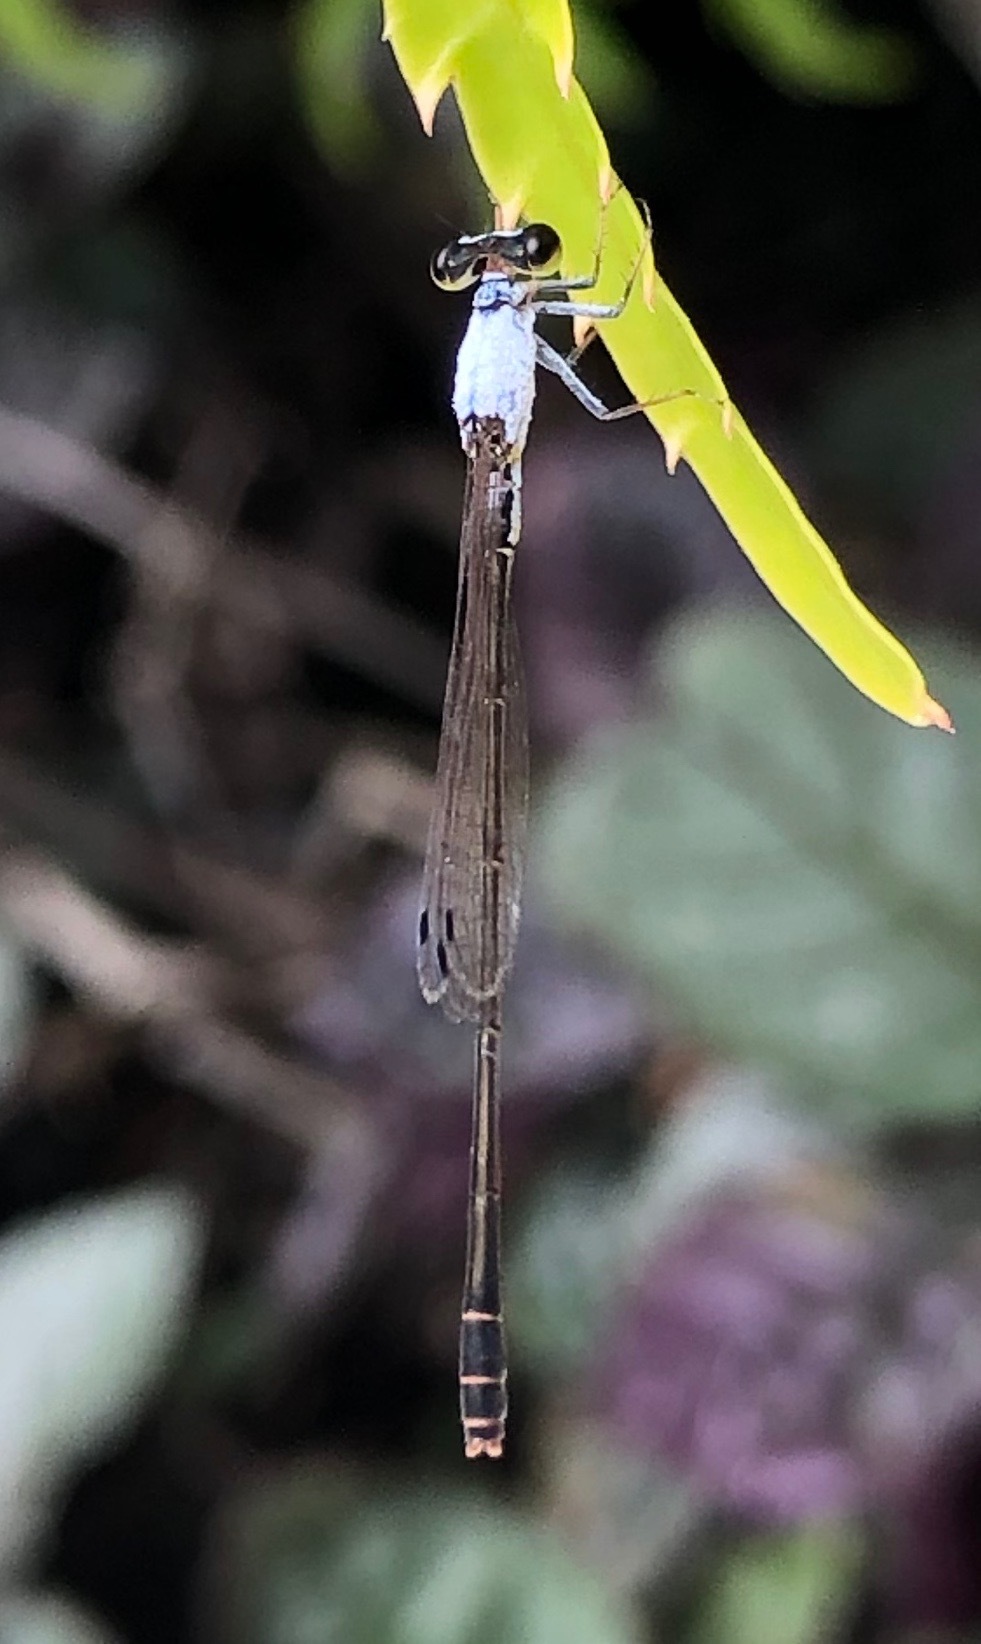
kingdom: Animalia
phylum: Arthropoda
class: Insecta
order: Odonata
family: Coenagrionidae
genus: Agriocnemis
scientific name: Agriocnemis exsudans
